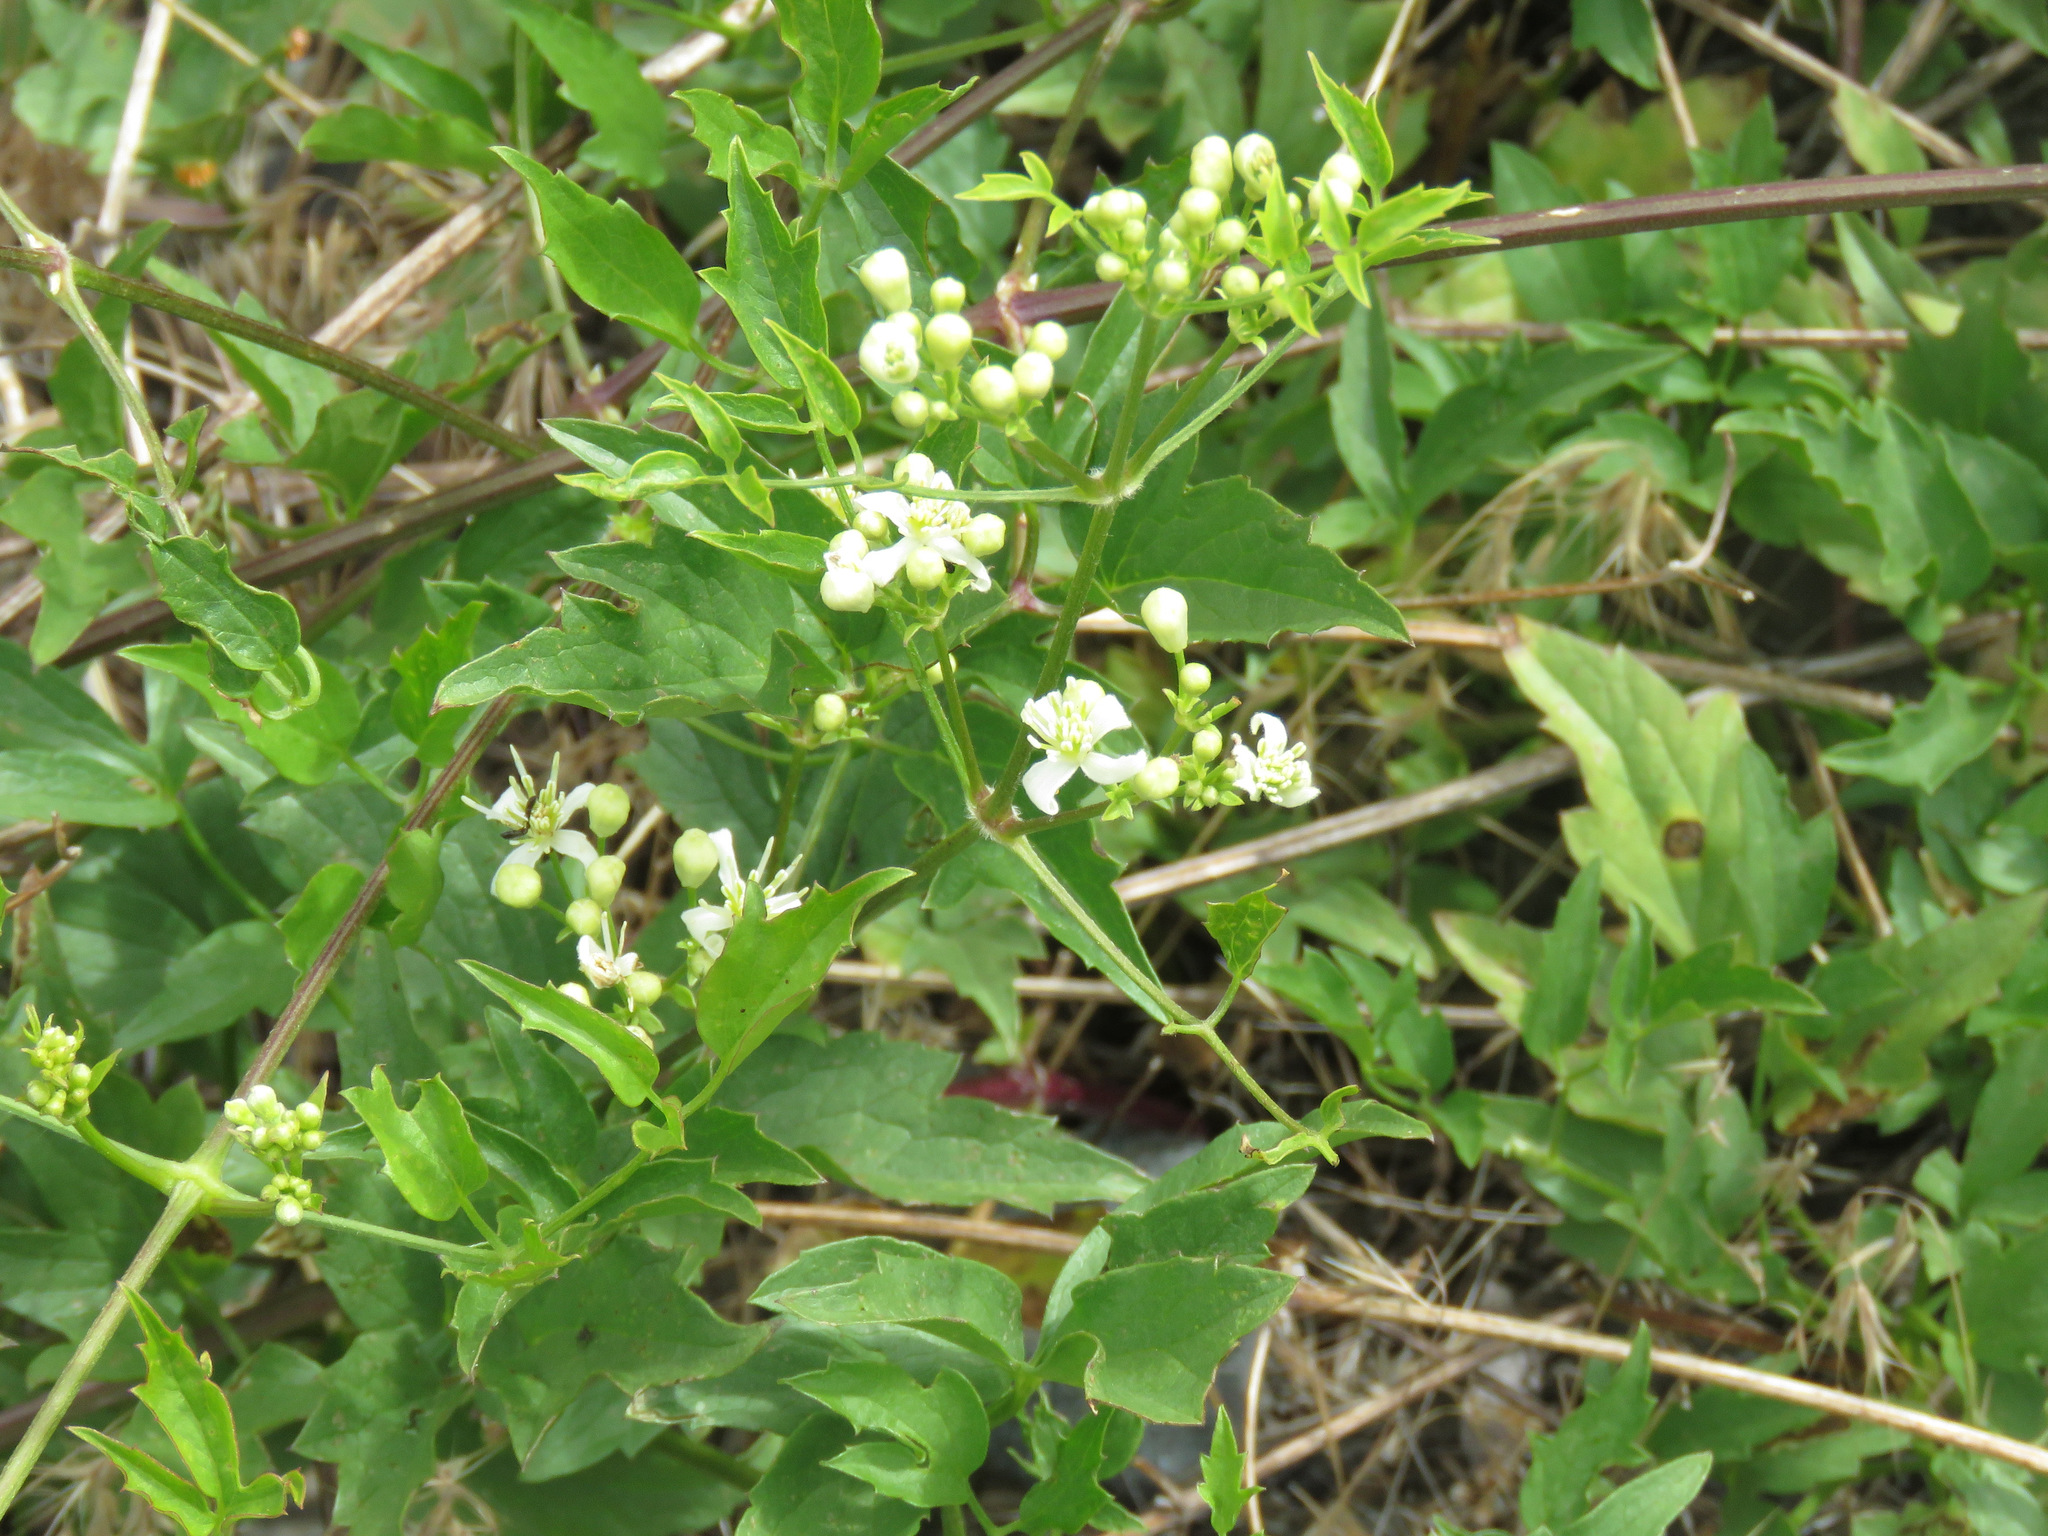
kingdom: Plantae
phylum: Tracheophyta
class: Magnoliopsida
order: Ranunculales
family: Ranunculaceae
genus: Clematis
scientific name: Clematis ligusticifolia
